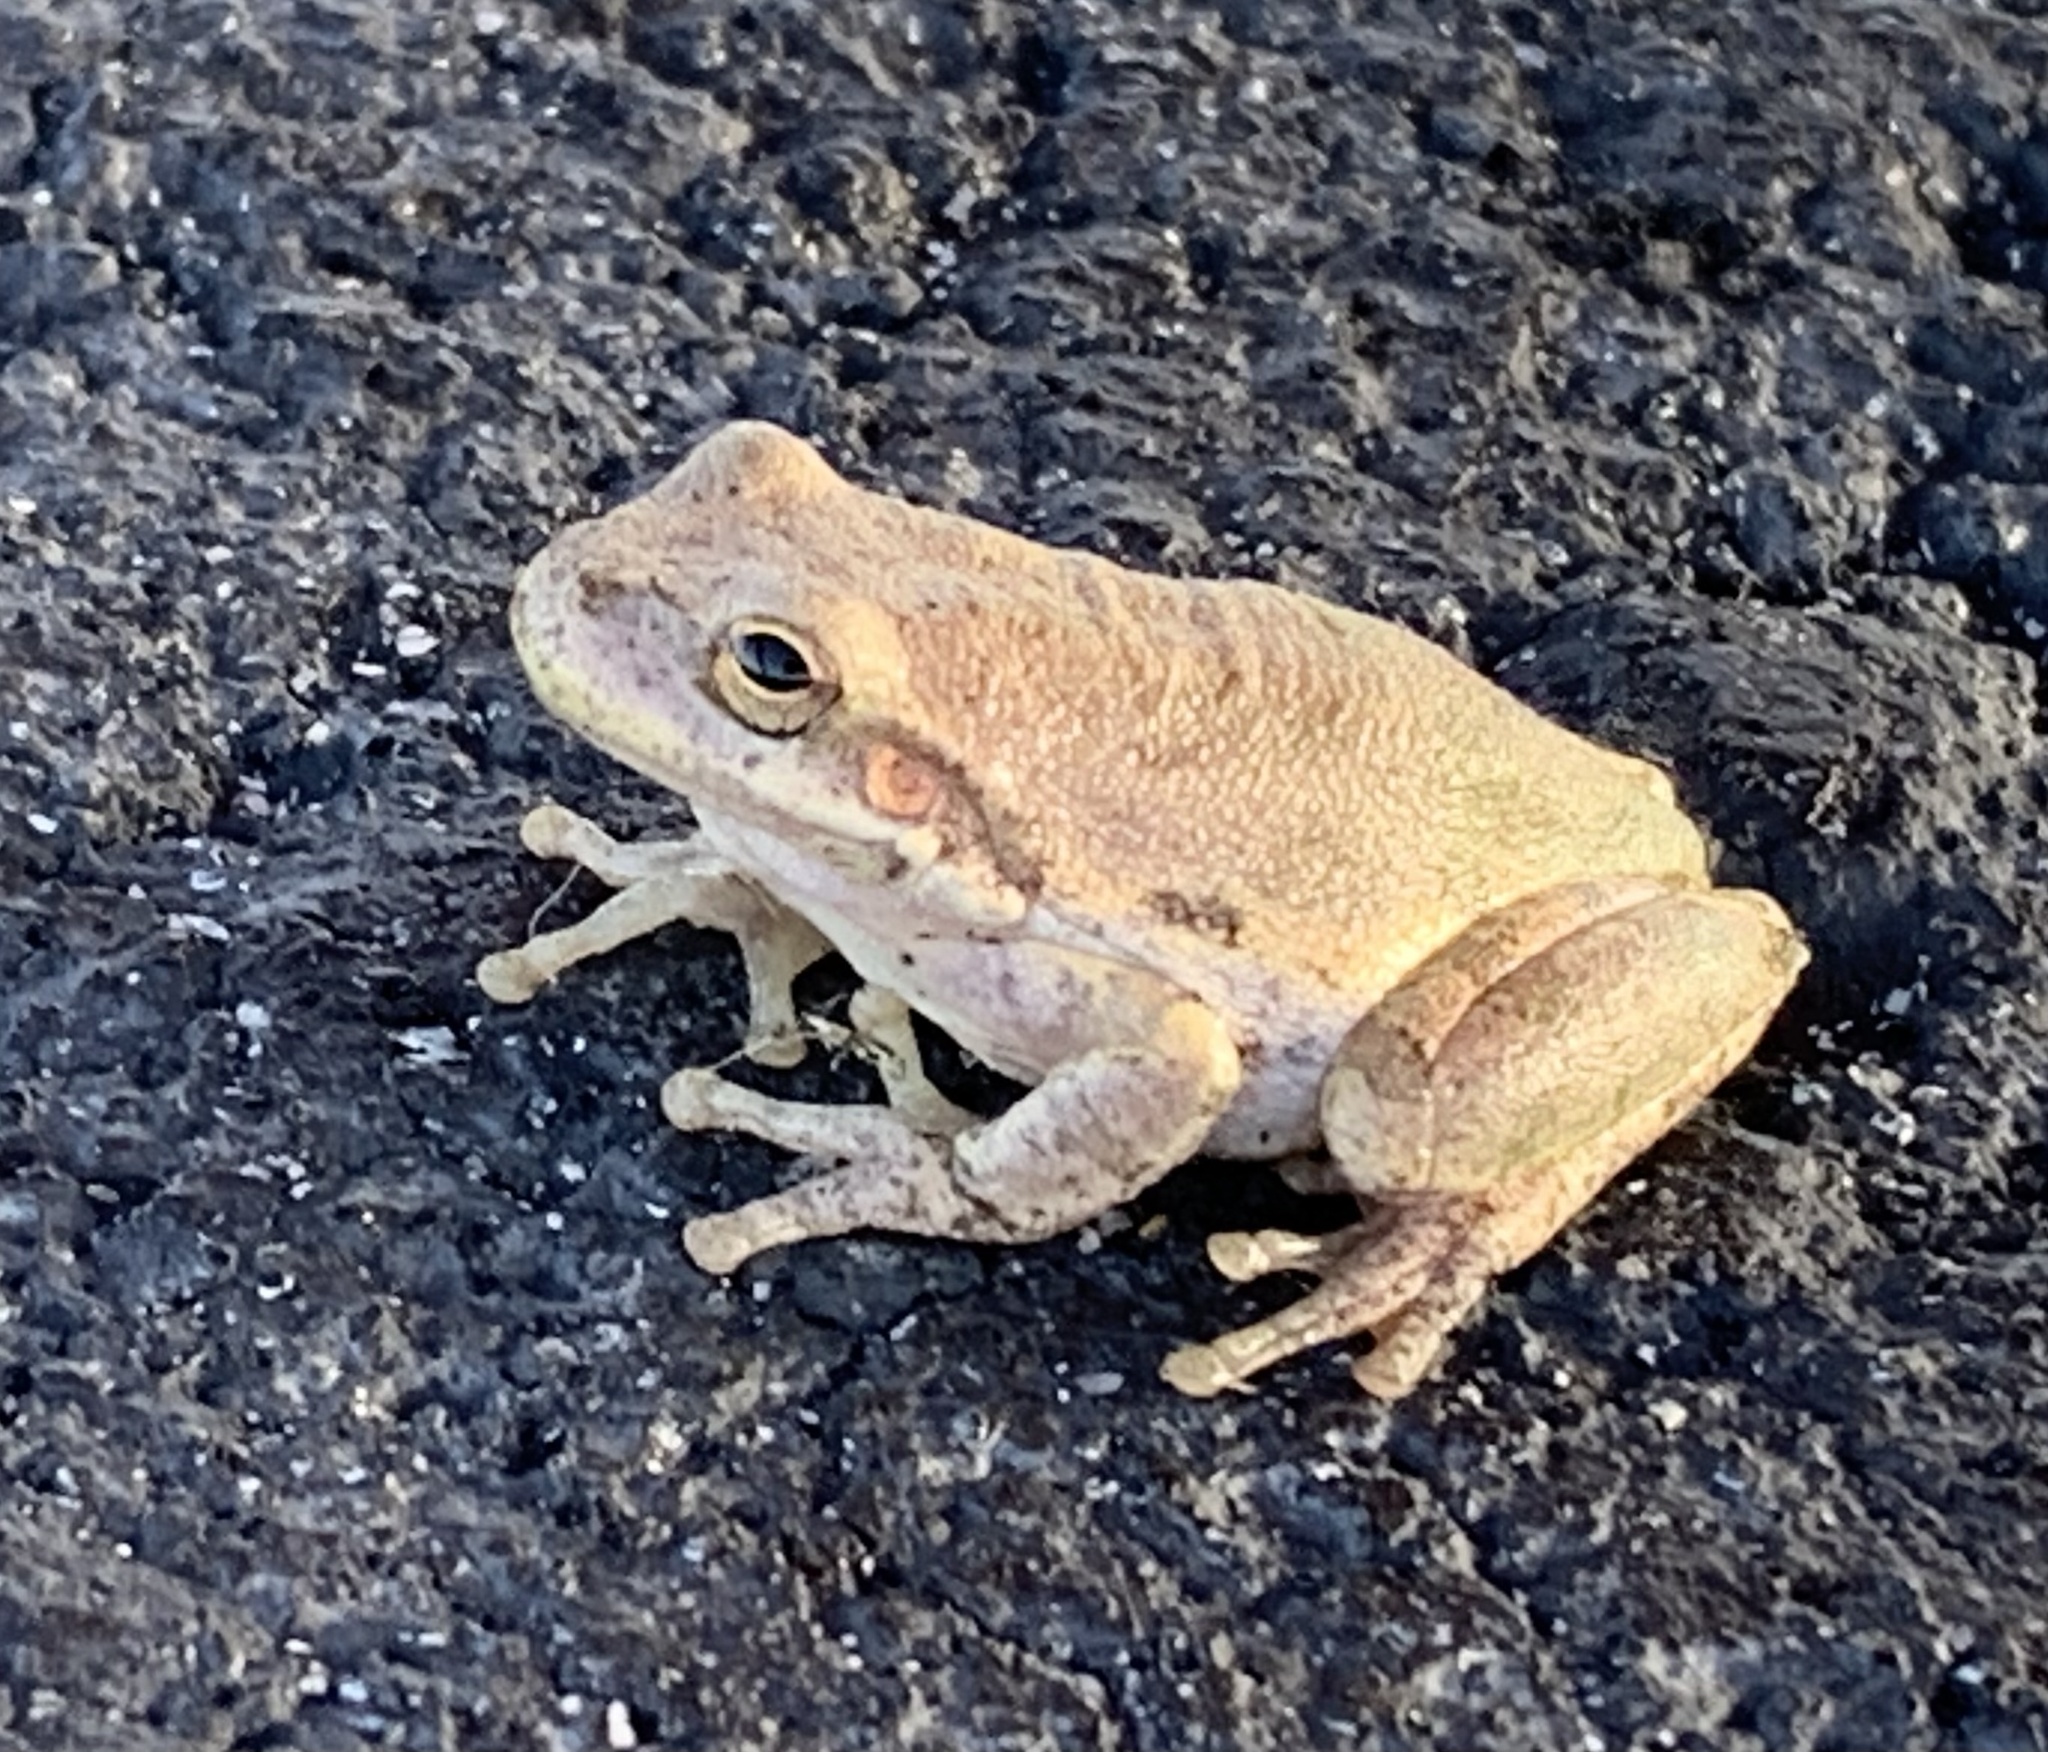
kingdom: Animalia
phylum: Chordata
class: Amphibia
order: Anura
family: Hylidae
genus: Dryophytes
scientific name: Dryophytes squirellus
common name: Squirrel treefrog
